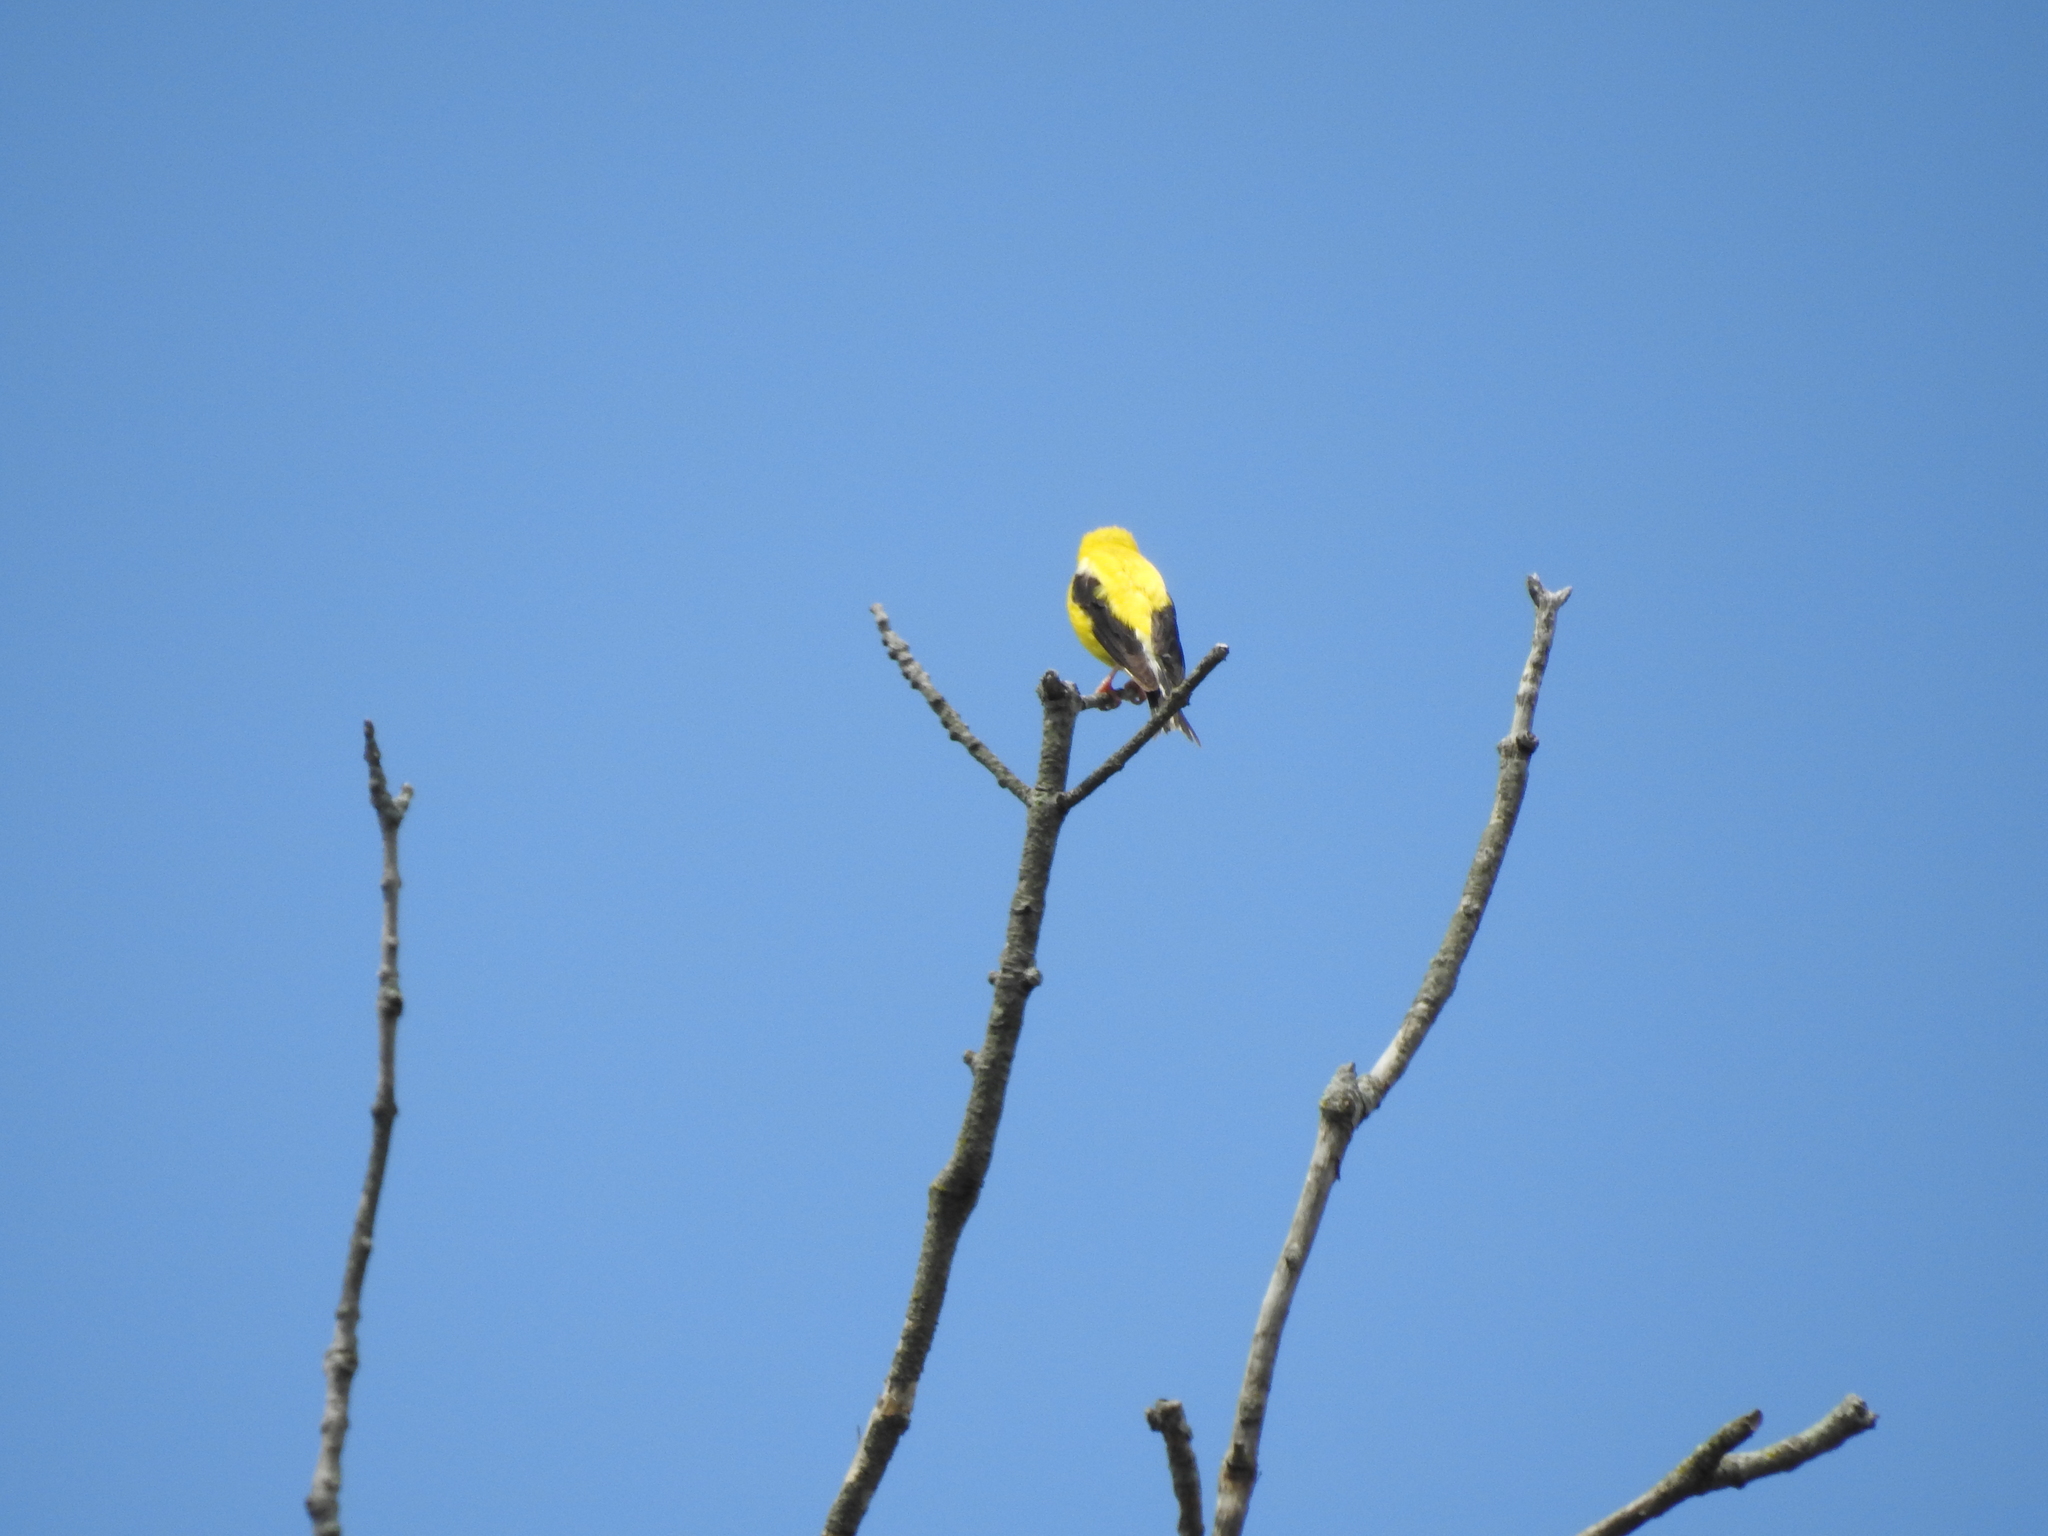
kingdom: Animalia
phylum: Chordata
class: Aves
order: Passeriformes
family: Fringillidae
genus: Spinus
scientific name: Spinus tristis
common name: American goldfinch
